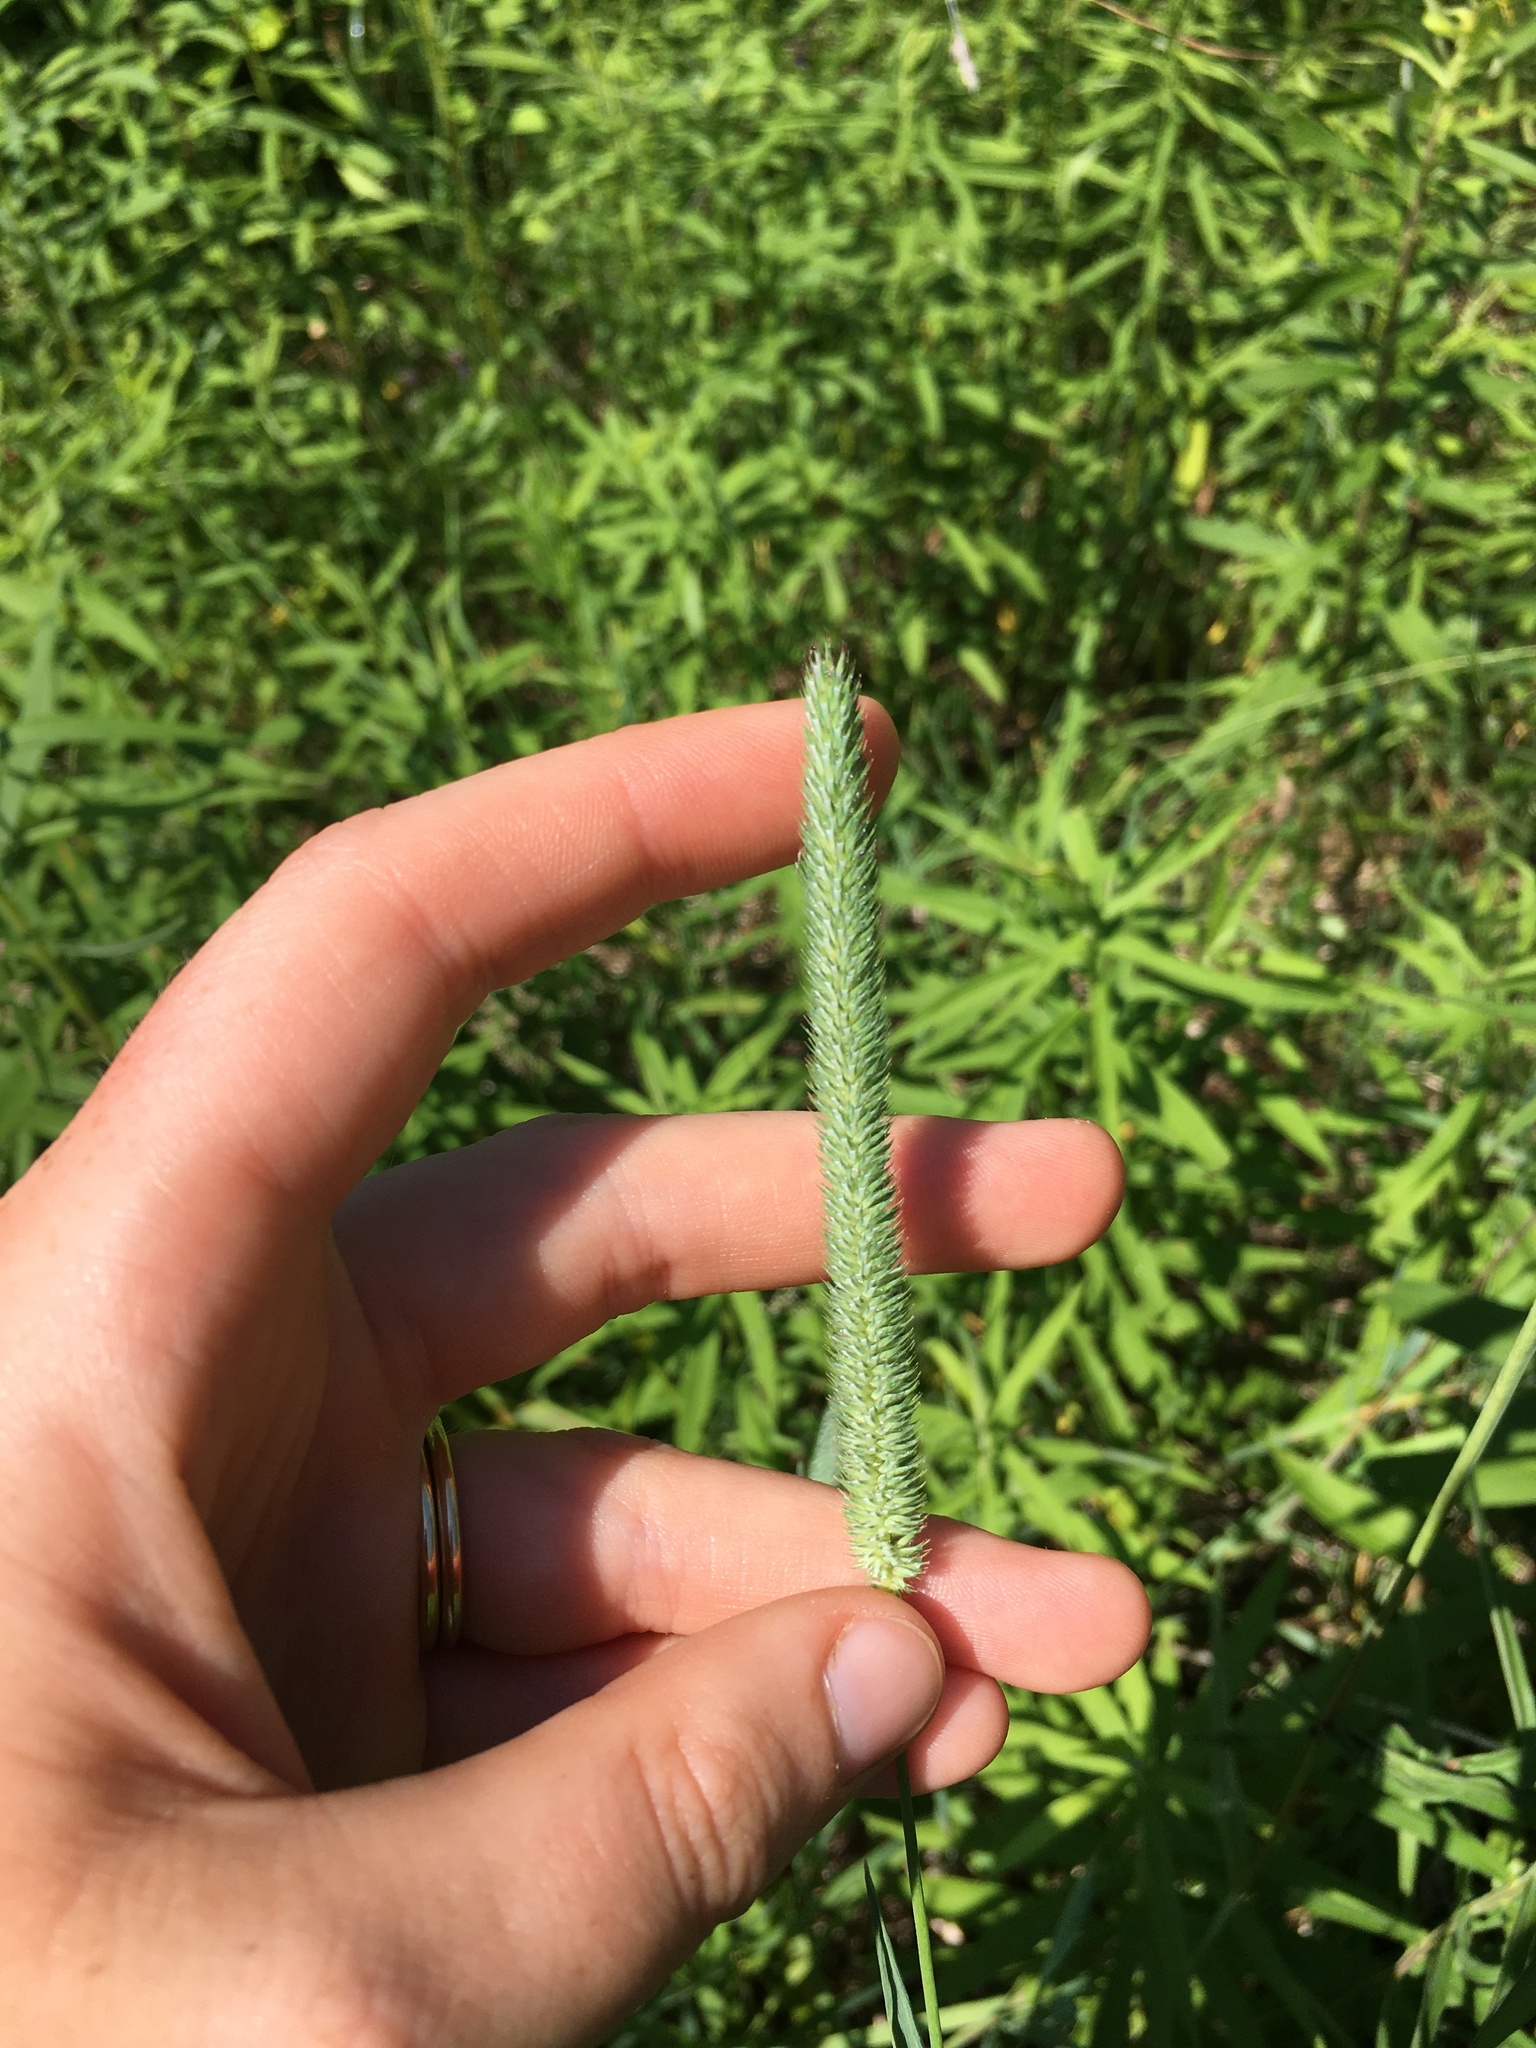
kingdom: Plantae
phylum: Tracheophyta
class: Liliopsida
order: Poales
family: Poaceae
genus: Phleum
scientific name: Phleum pratense
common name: Timothy grass
